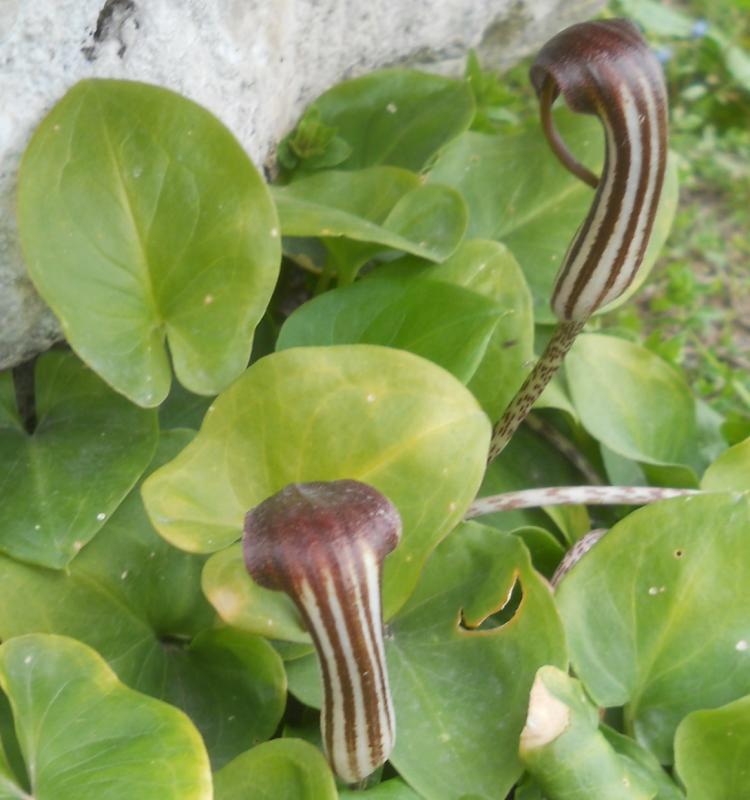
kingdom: Plantae
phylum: Tracheophyta
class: Liliopsida
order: Alismatales
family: Araceae
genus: Arisarum
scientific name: Arisarum vulgare
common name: Common arisarum
